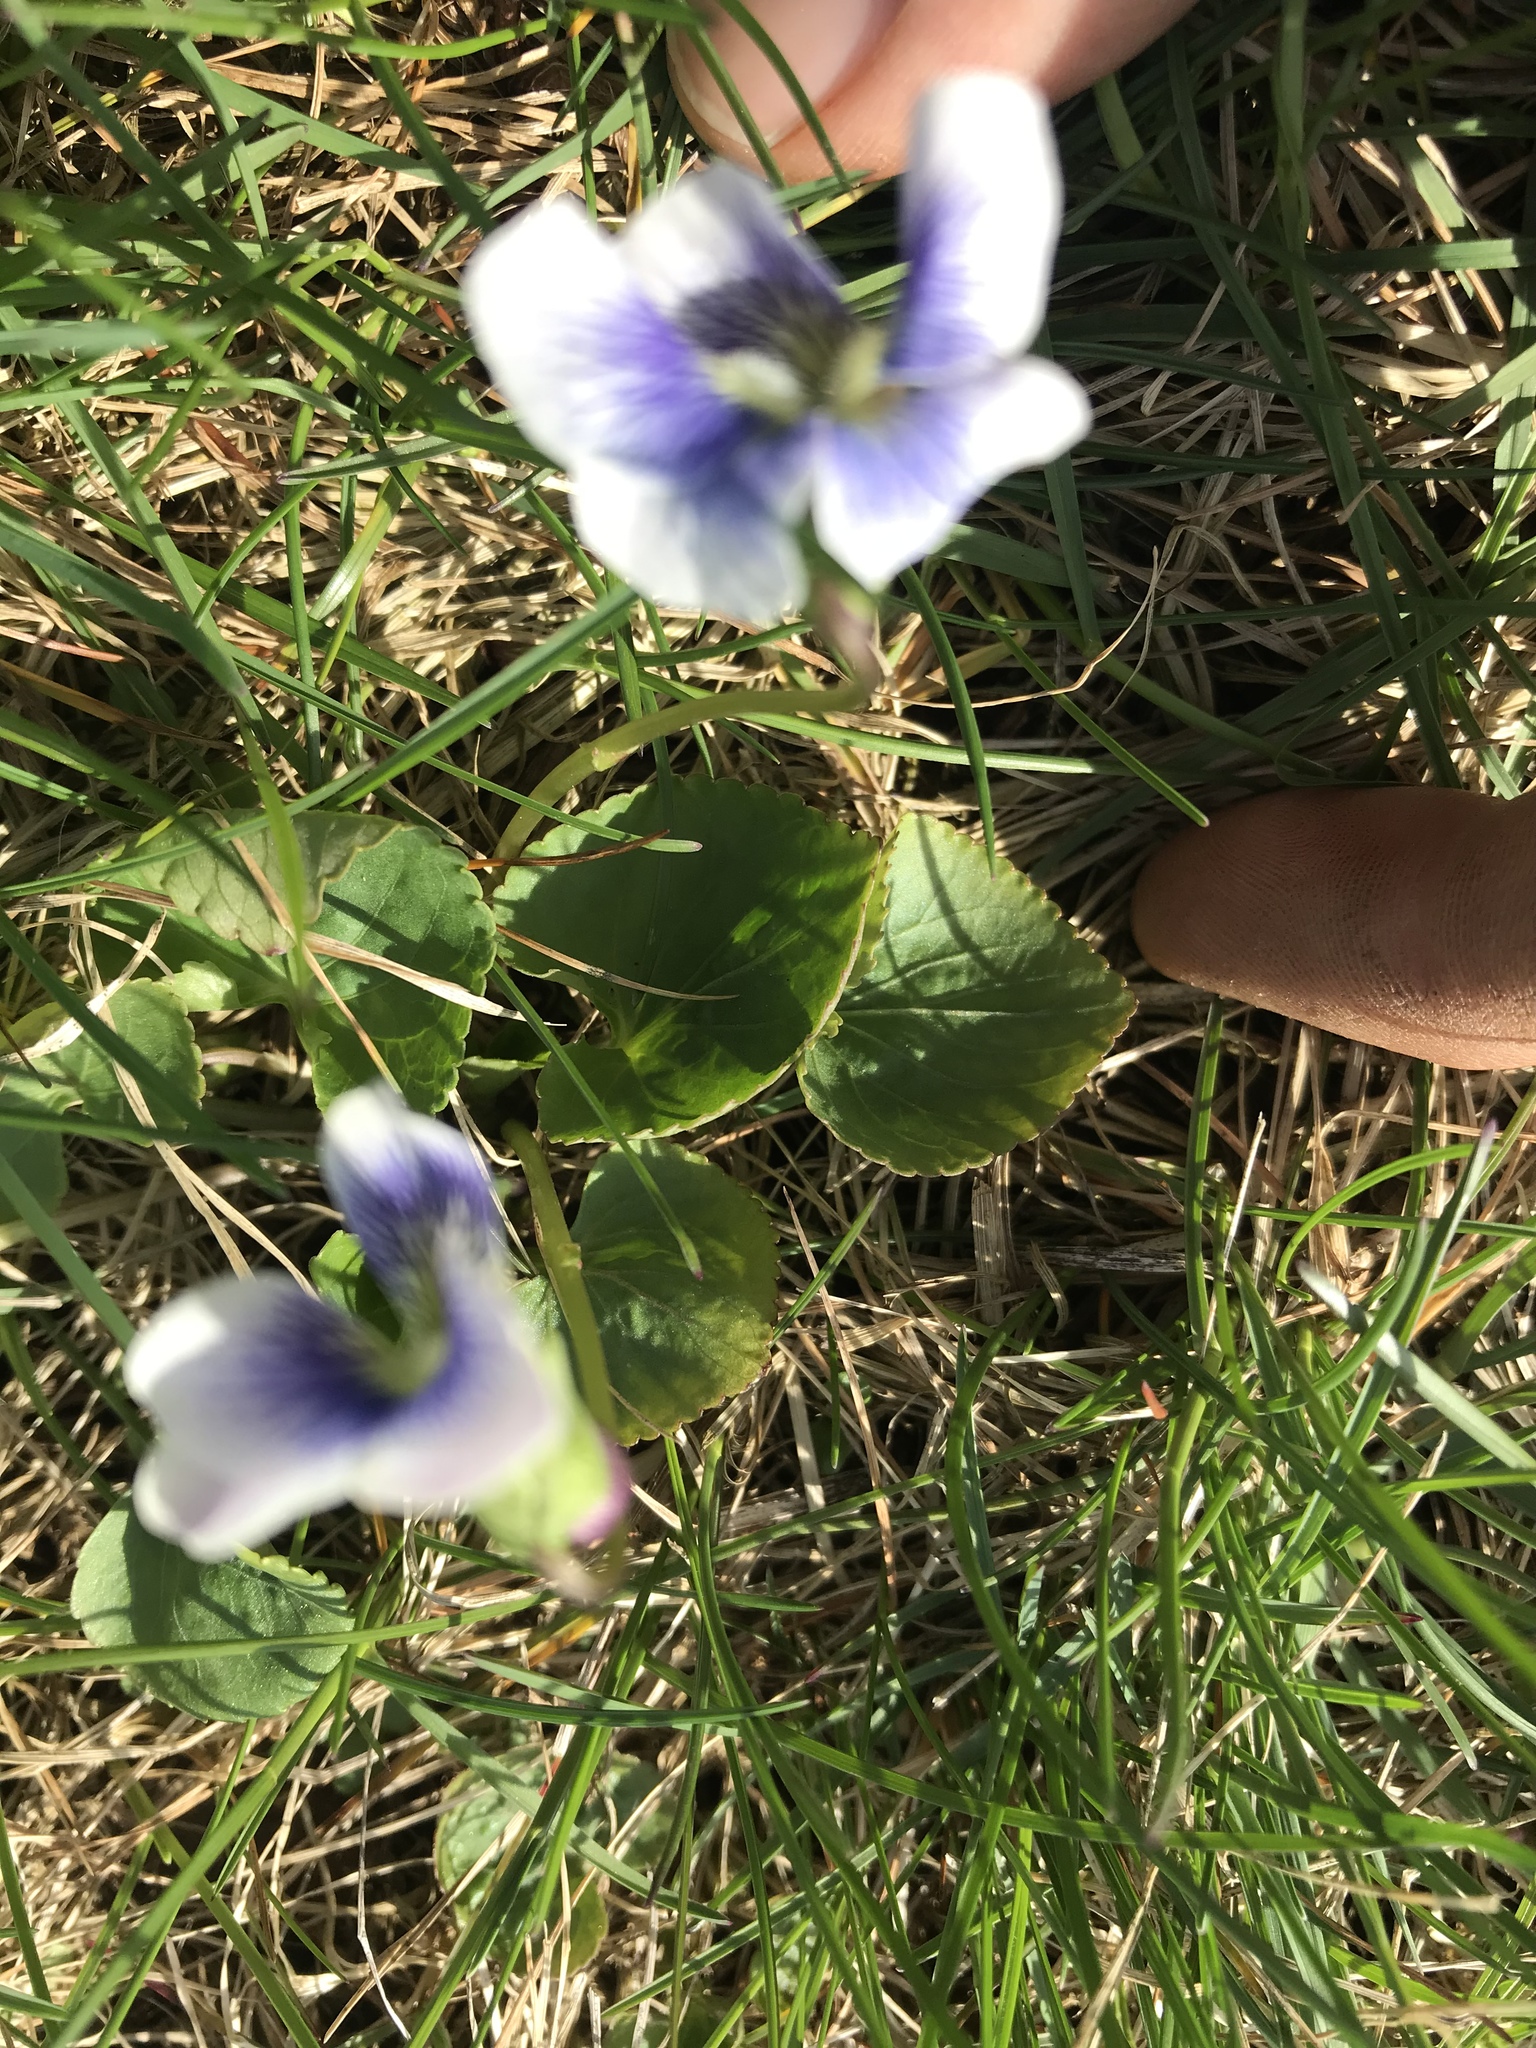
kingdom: Plantae
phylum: Tracheophyta
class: Magnoliopsida
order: Malpighiales
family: Violaceae
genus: Viola
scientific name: Viola sororia
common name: Dooryard violet
